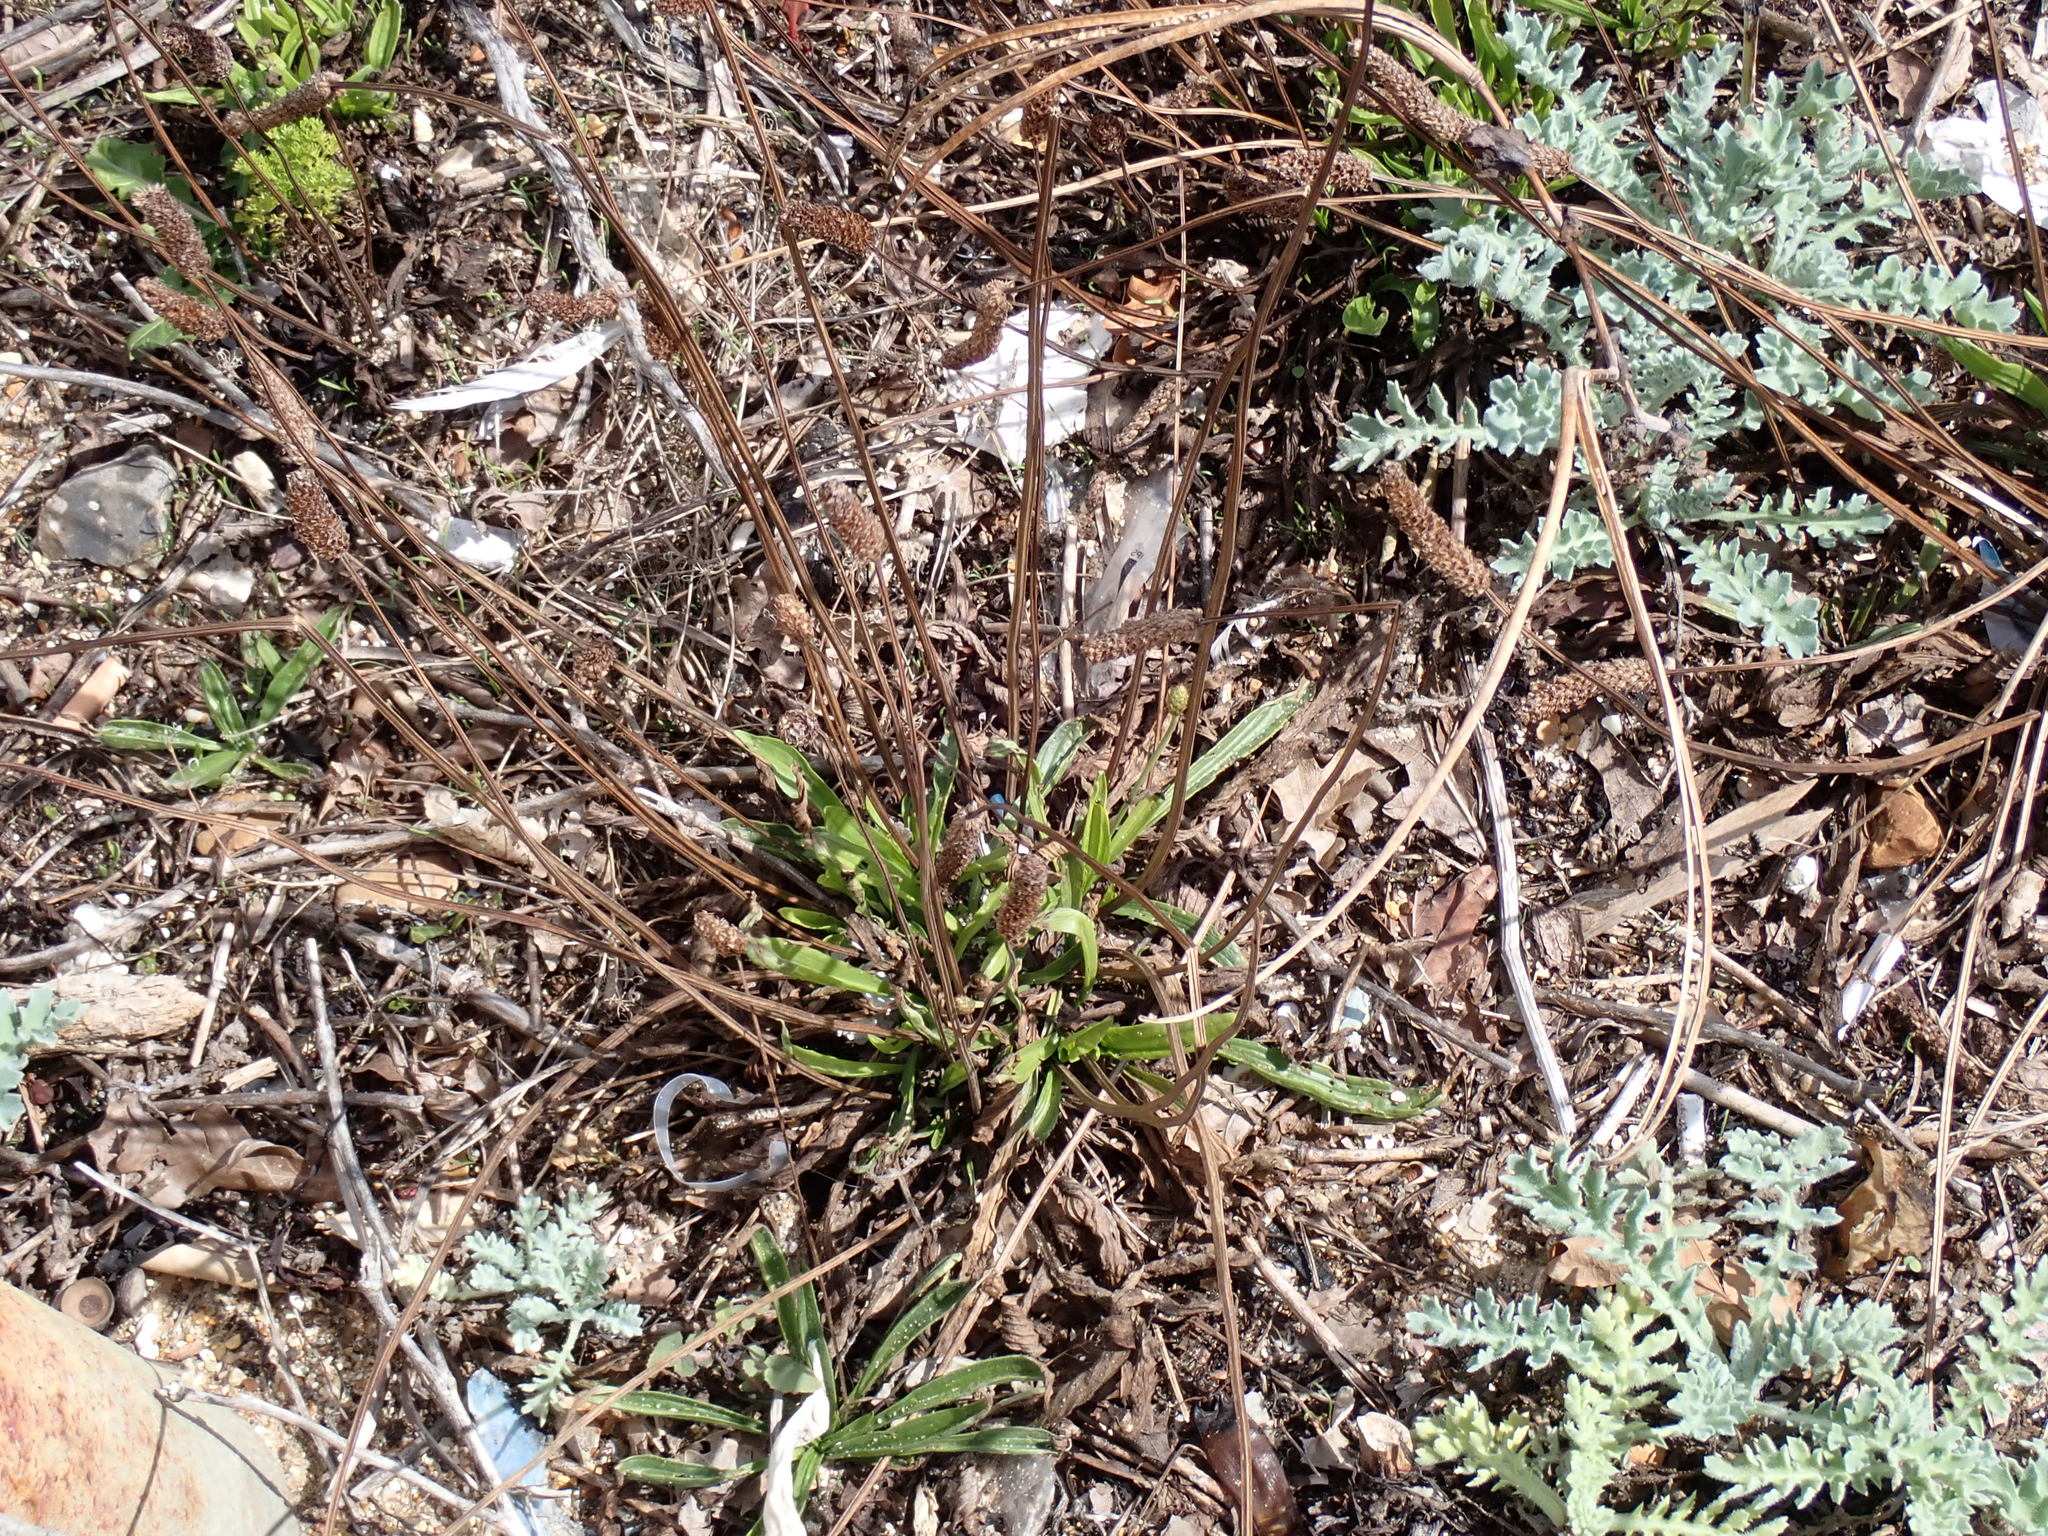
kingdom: Plantae
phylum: Tracheophyta
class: Magnoliopsida
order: Lamiales
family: Plantaginaceae
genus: Plantago
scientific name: Plantago lanceolata
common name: Ribwort plantain
